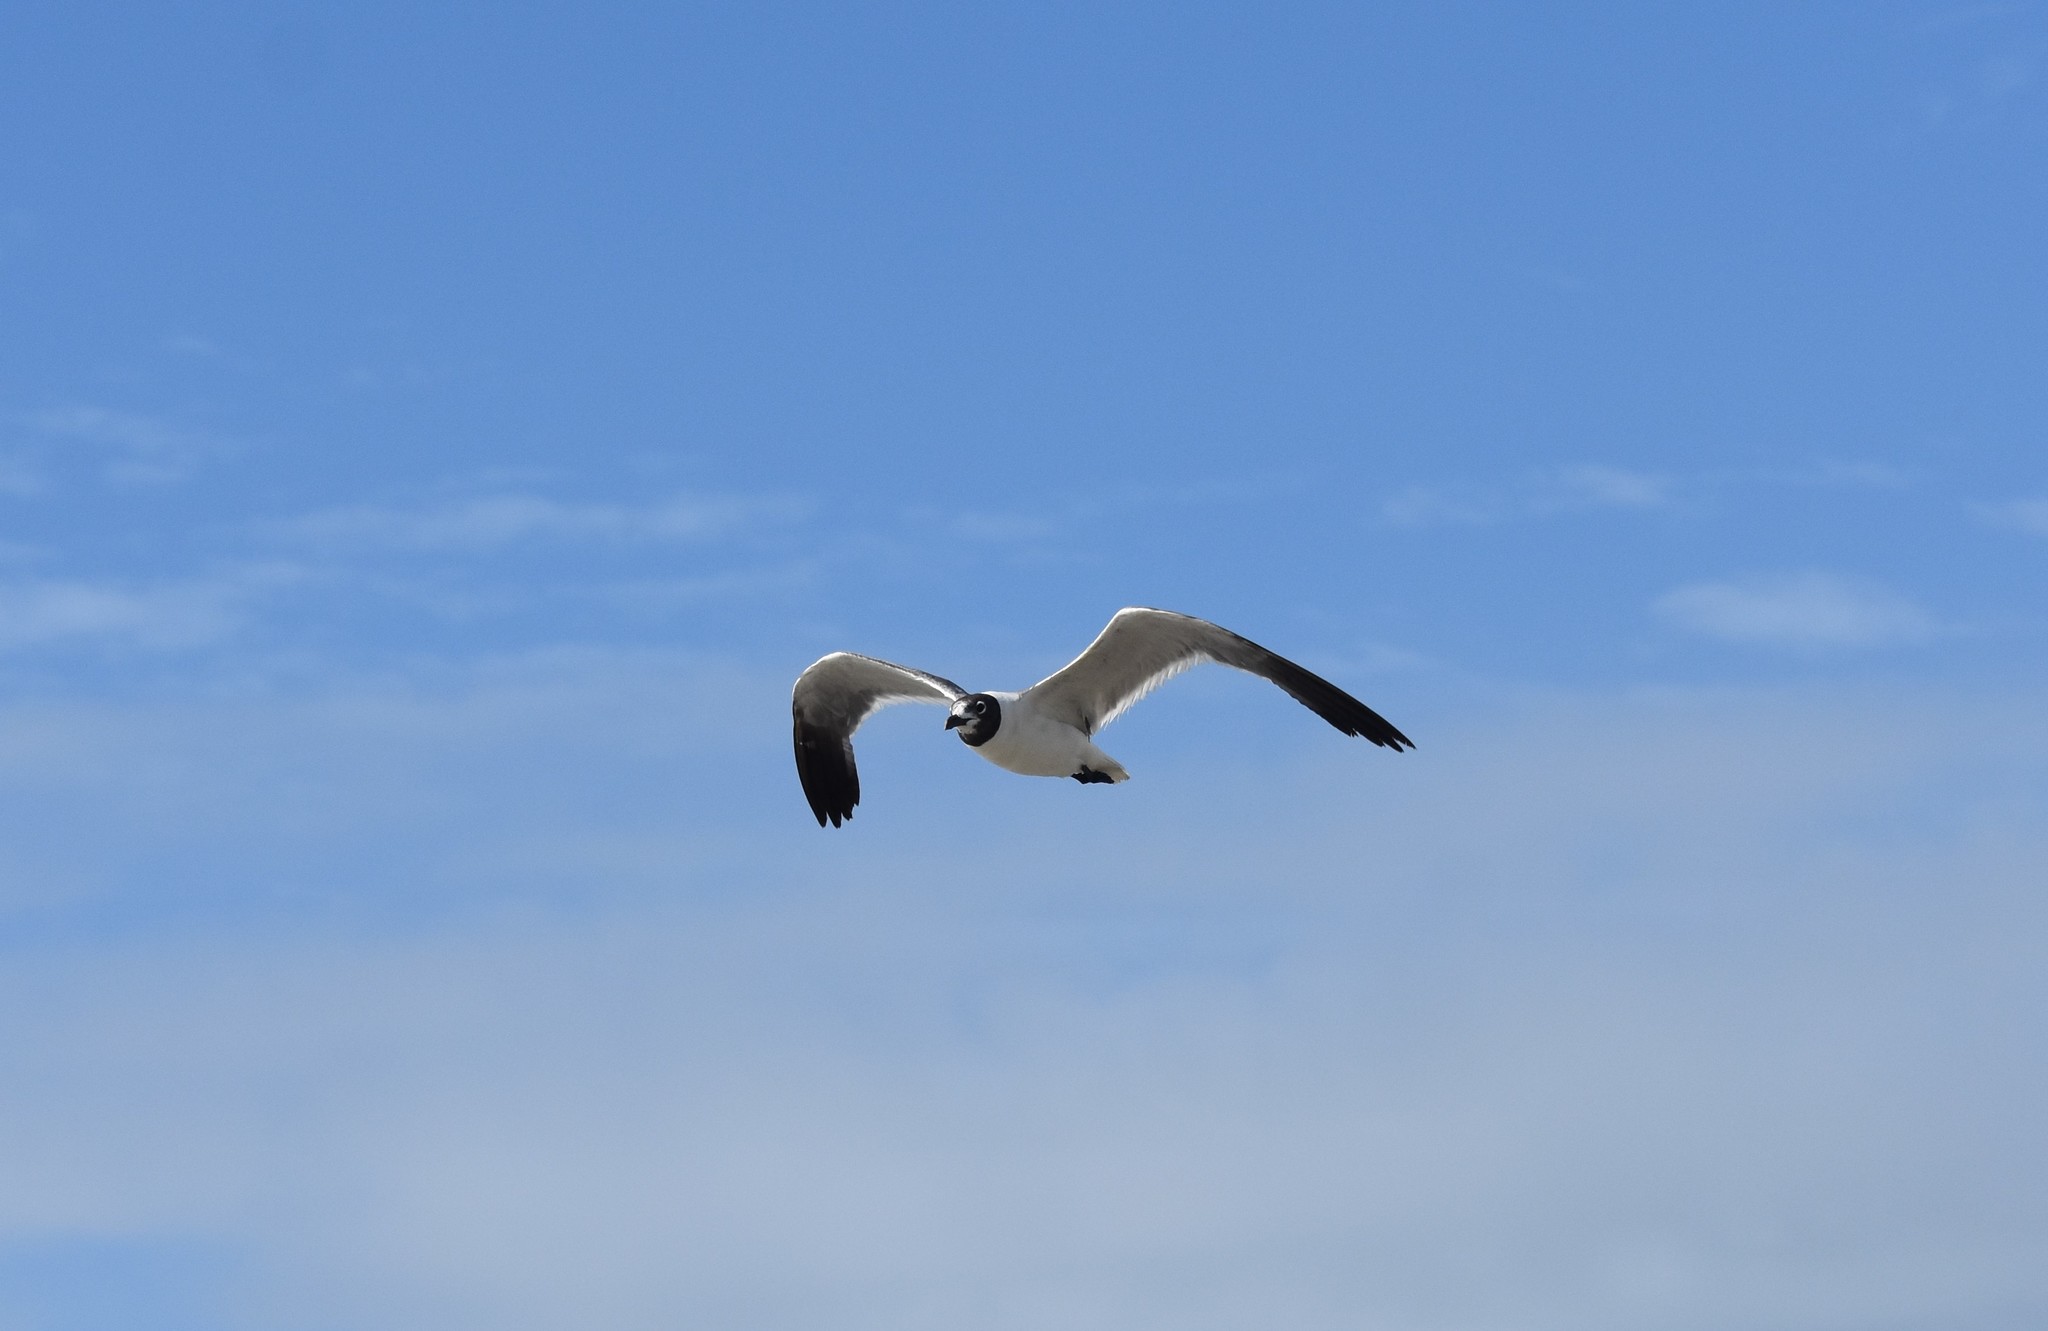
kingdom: Animalia
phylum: Chordata
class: Aves
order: Charadriiformes
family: Laridae
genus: Leucophaeus
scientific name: Leucophaeus atricilla
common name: Laughing gull
